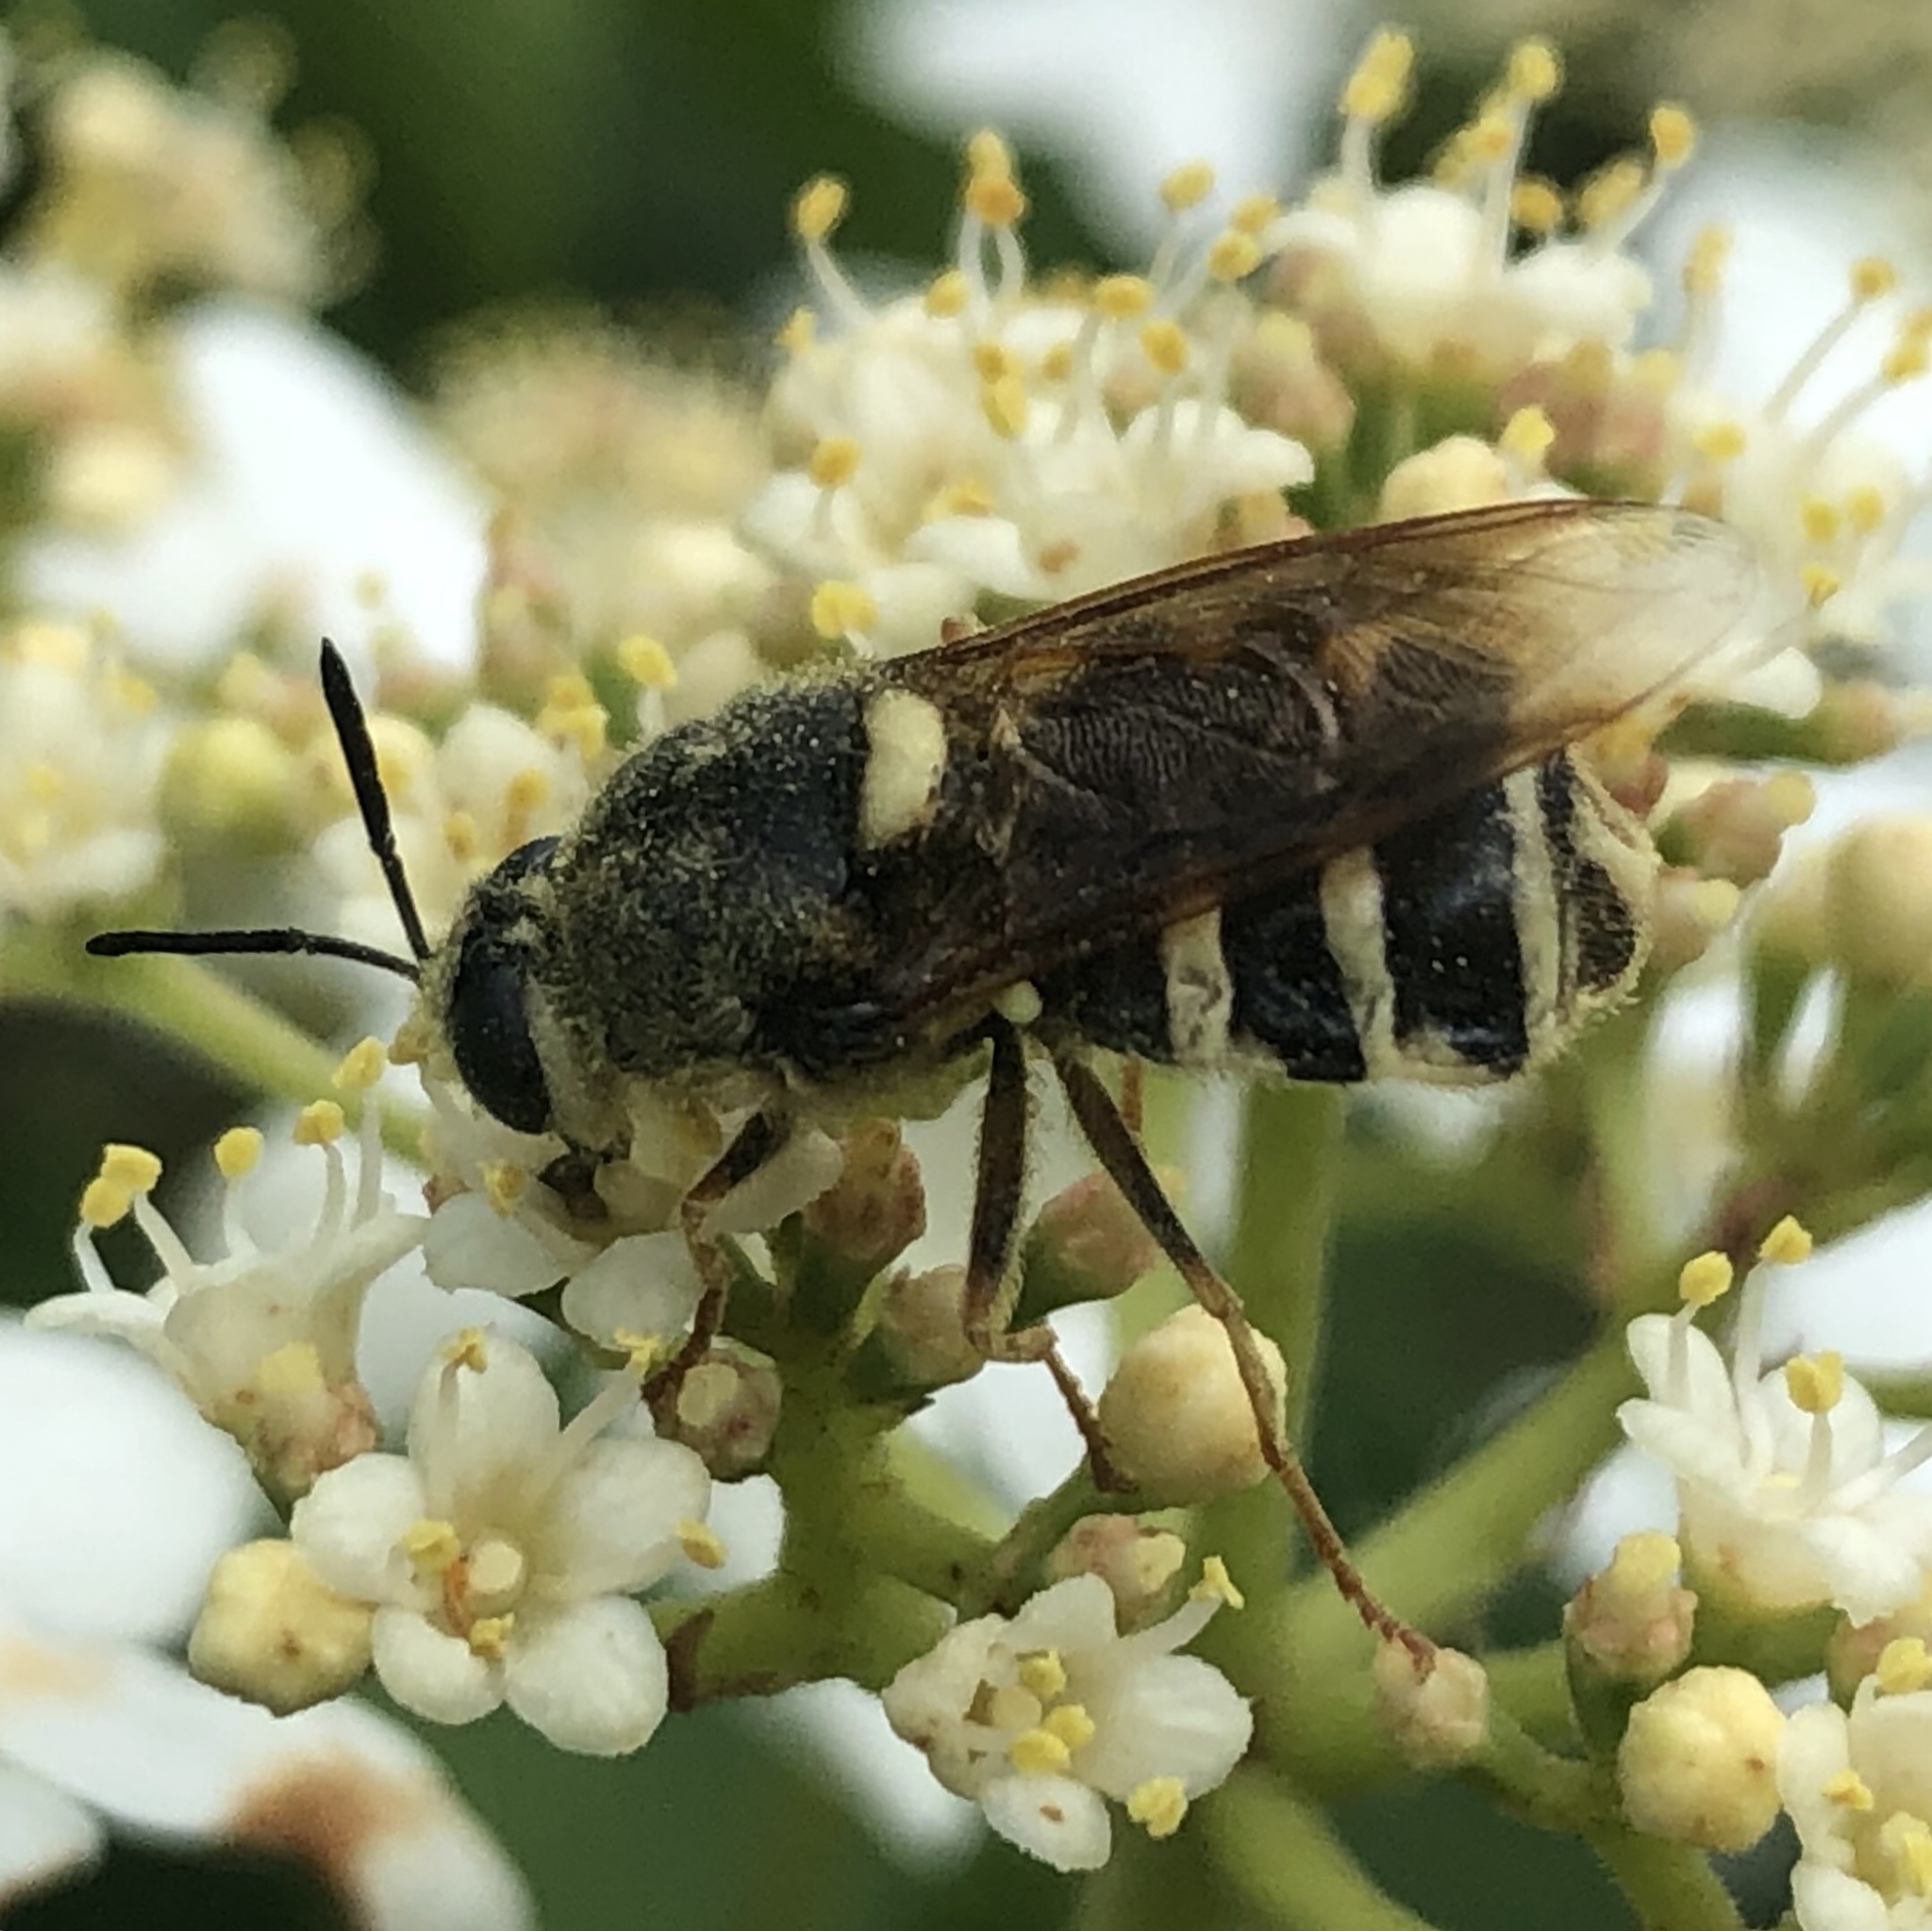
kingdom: Animalia
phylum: Arthropoda
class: Insecta
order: Diptera
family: Stratiomyidae
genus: Stratiomys
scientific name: Stratiomys obesa
